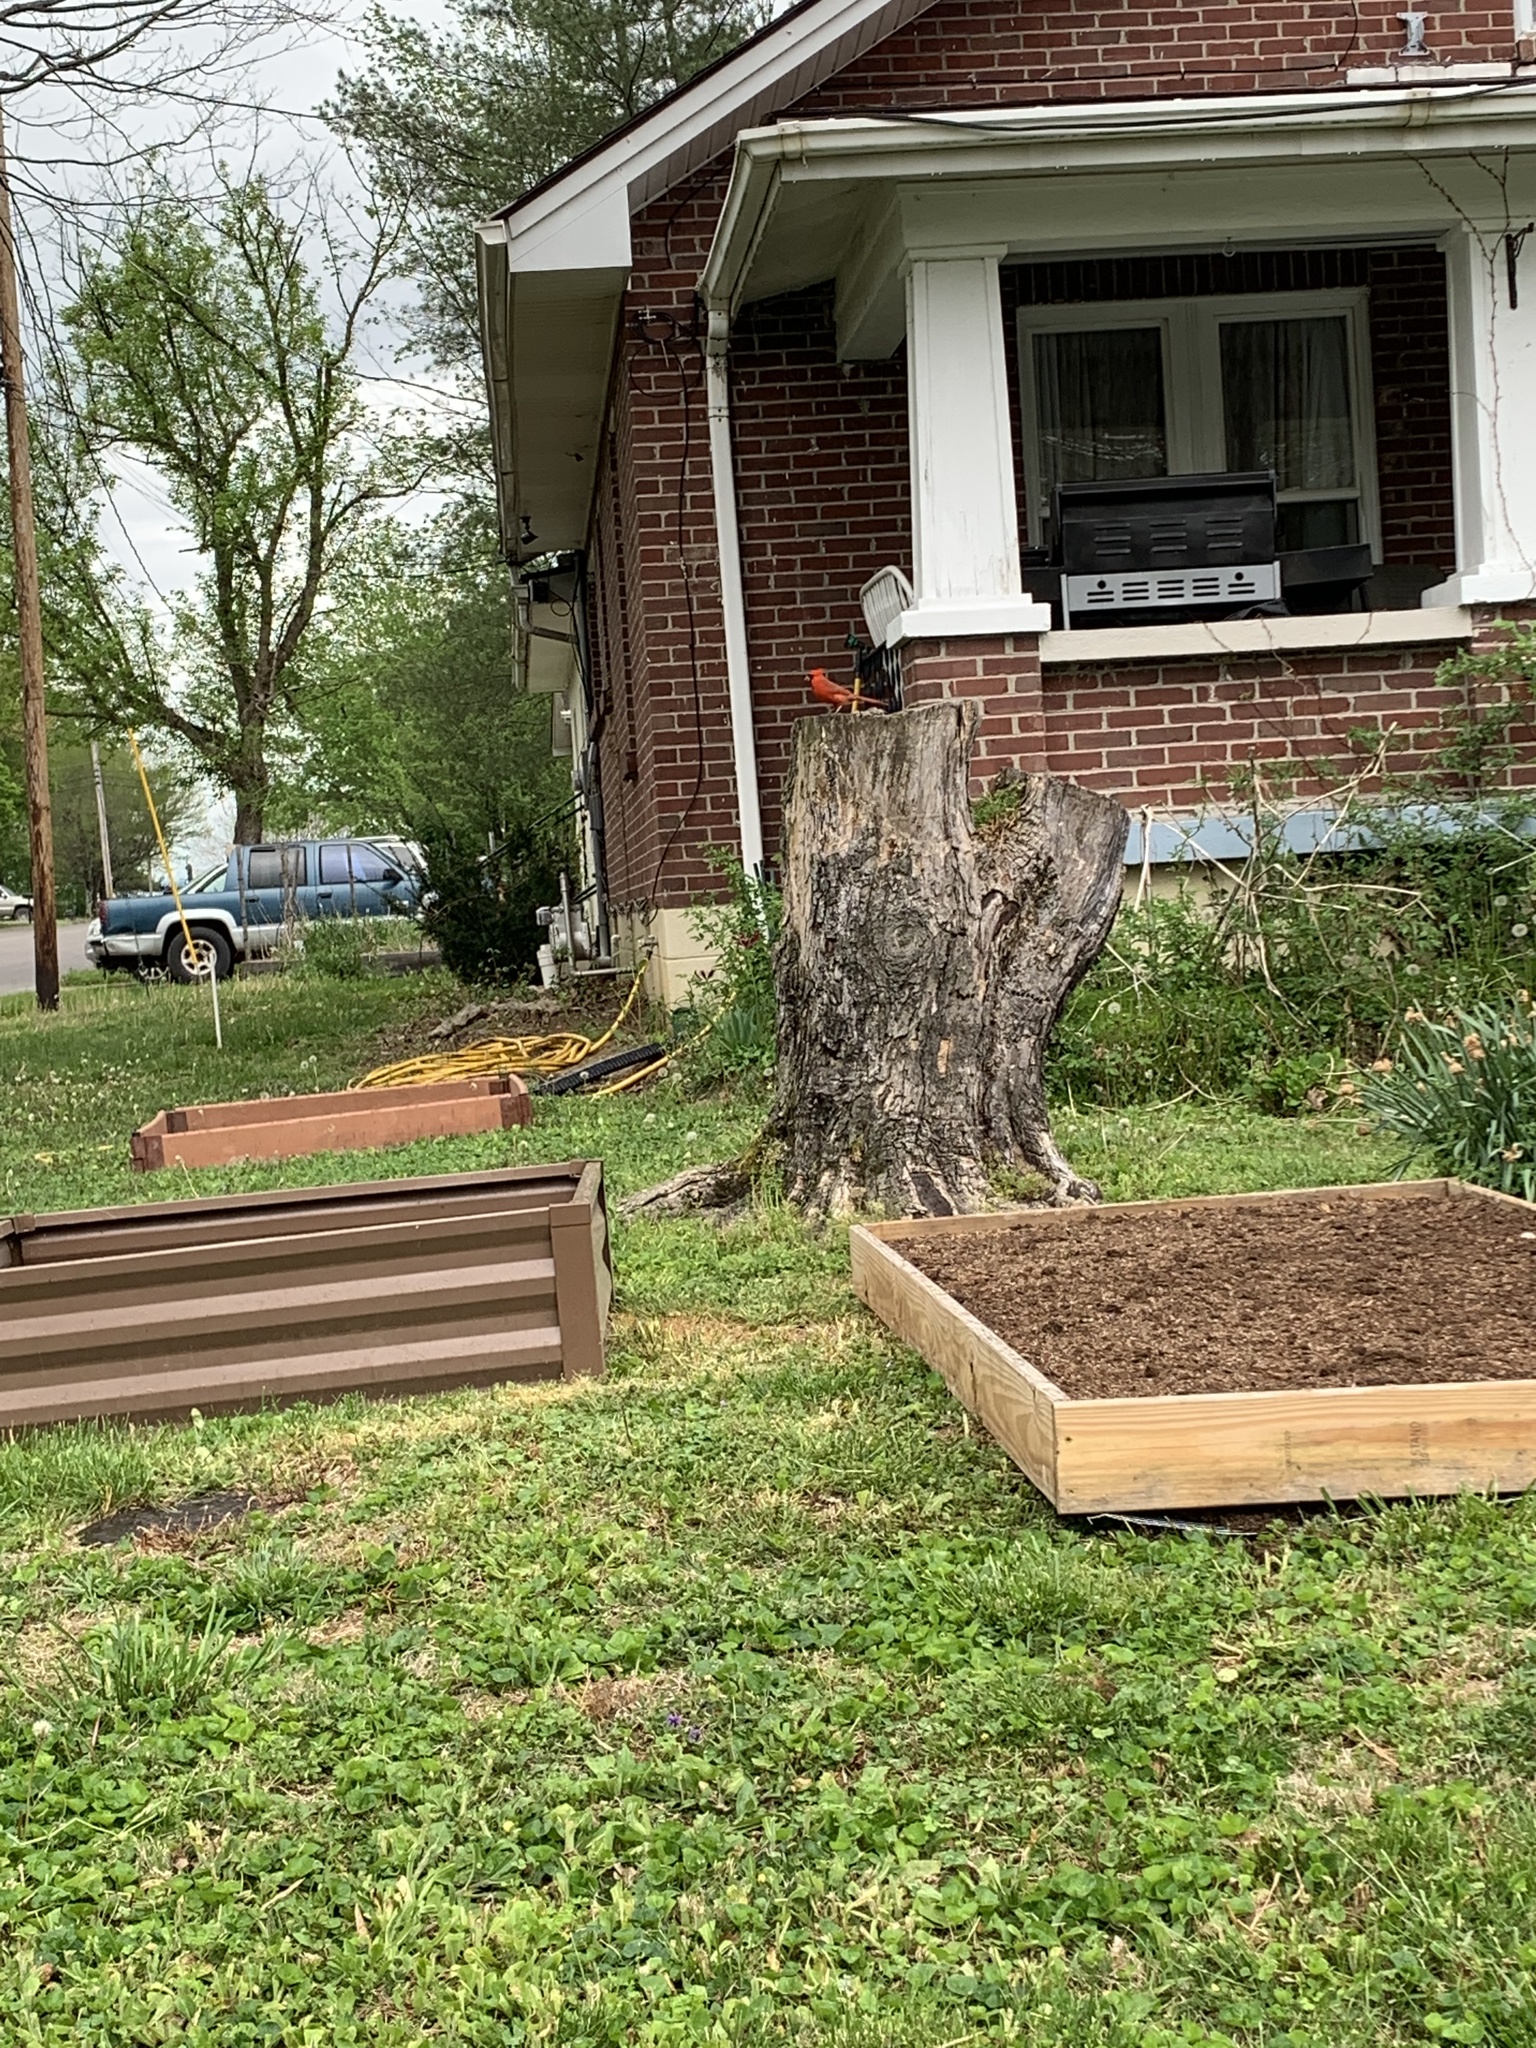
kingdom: Animalia
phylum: Chordata
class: Aves
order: Passeriformes
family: Cardinalidae
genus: Cardinalis
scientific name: Cardinalis cardinalis
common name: Northern cardinal
